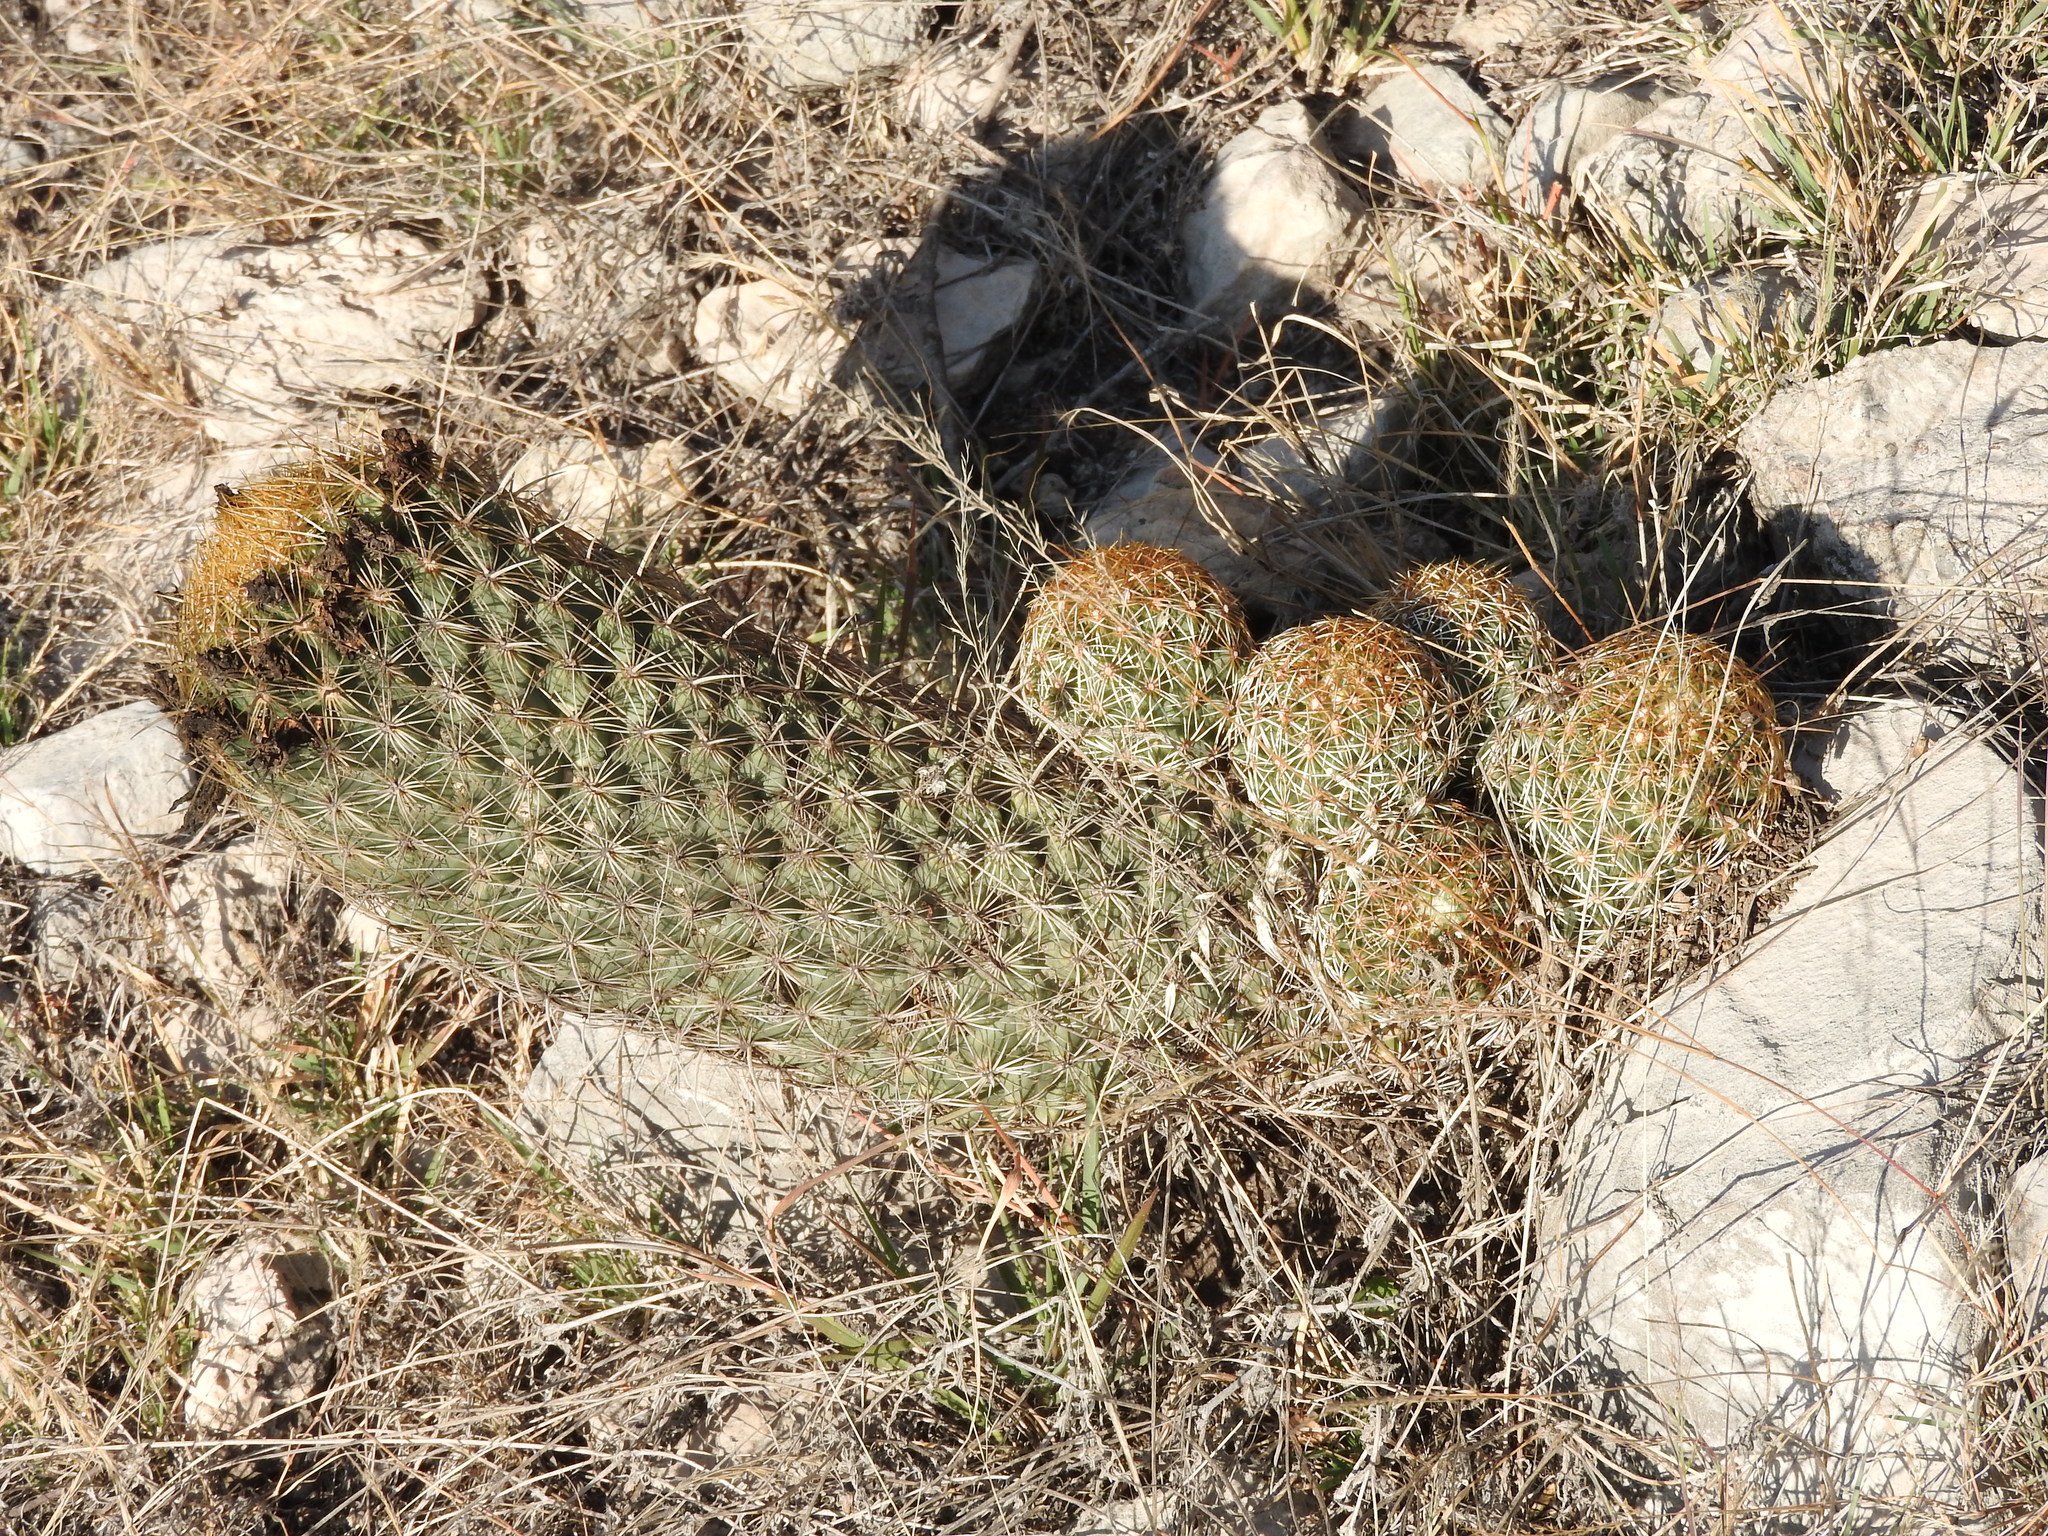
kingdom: Plantae
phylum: Tracheophyta
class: Magnoliopsida
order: Caryophyllales
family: Cactaceae
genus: Coryphantha
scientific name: Coryphantha erecta
